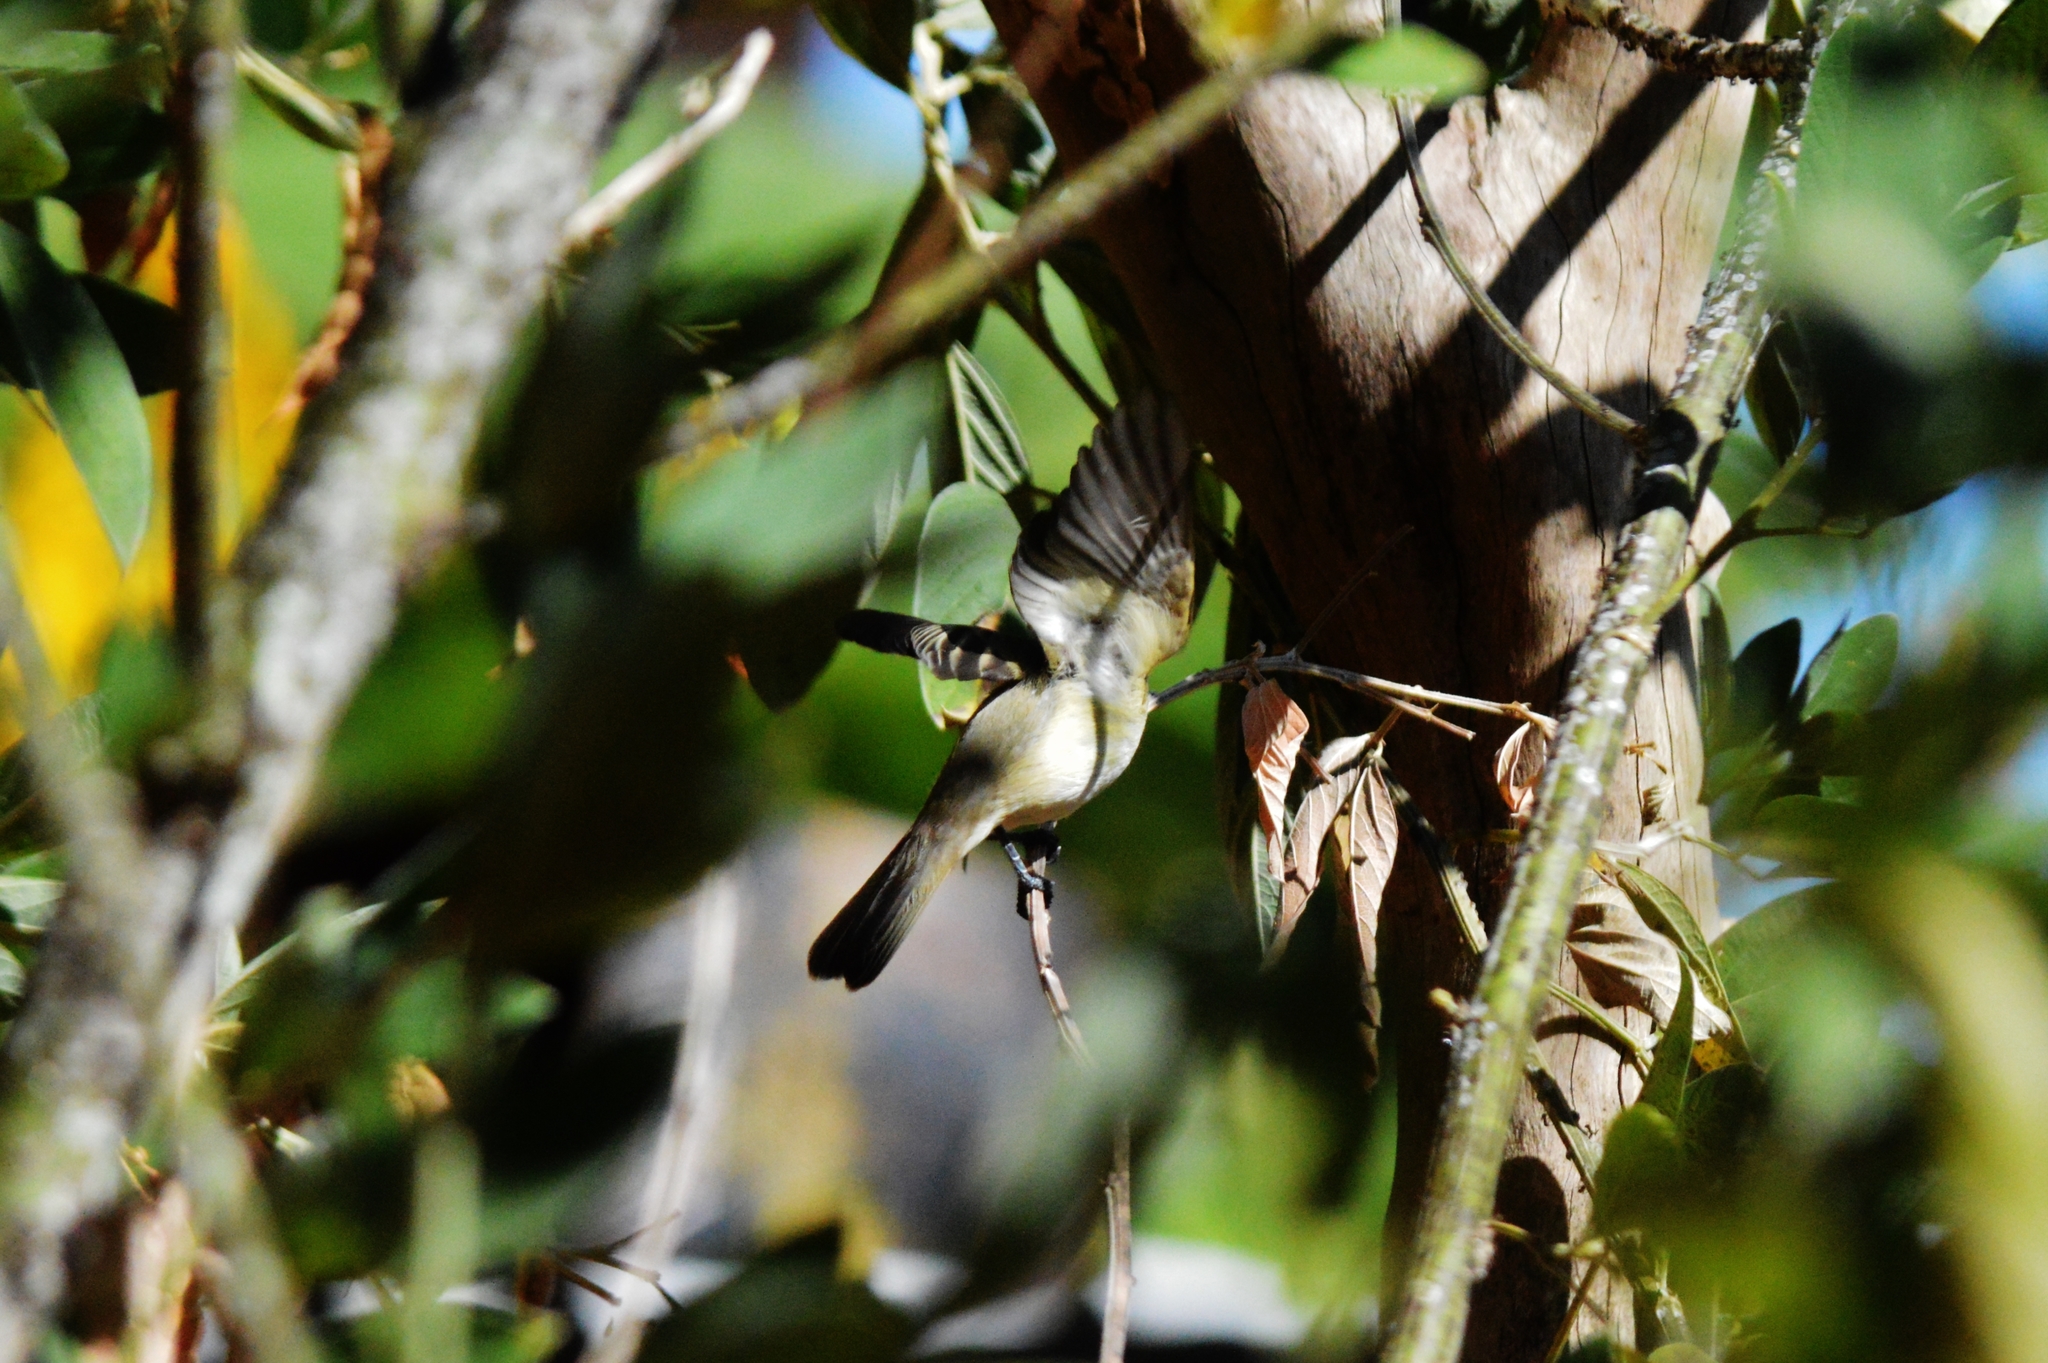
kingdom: Animalia
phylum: Chordata
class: Aves
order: Passeriformes
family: Tyrannidae
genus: Camptostoma
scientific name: Camptostoma obsoletum
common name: Southern beardless-tyrannulet
